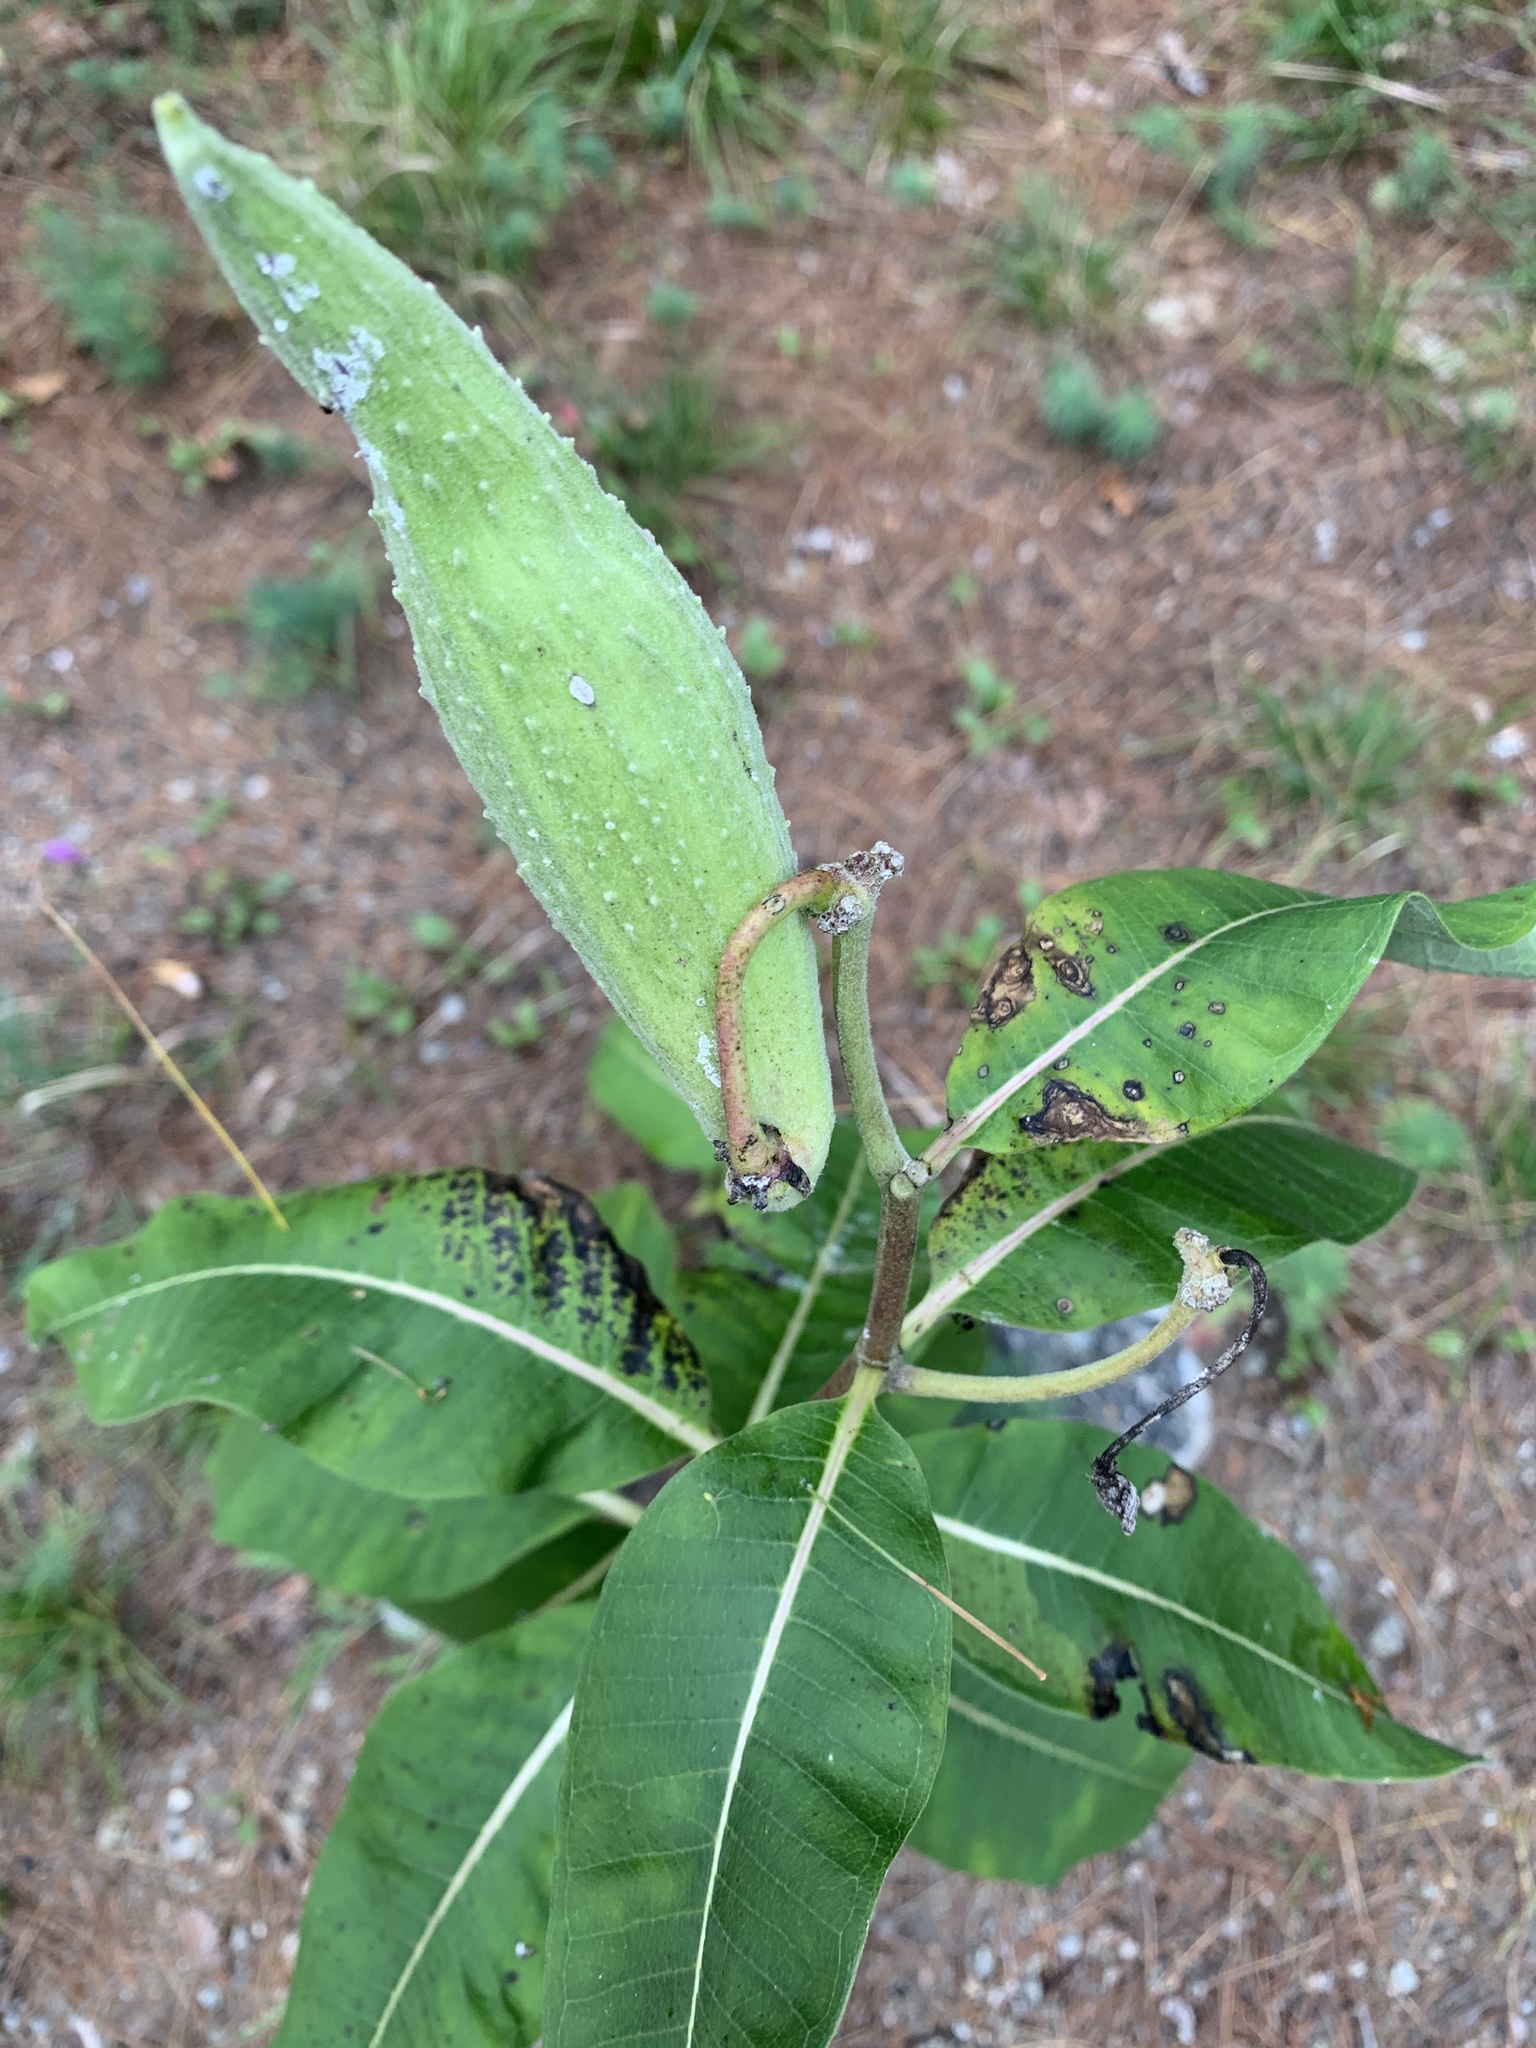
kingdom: Plantae
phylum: Tracheophyta
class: Magnoliopsida
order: Gentianales
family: Apocynaceae
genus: Asclepias
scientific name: Asclepias syriaca
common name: Common milkweed
